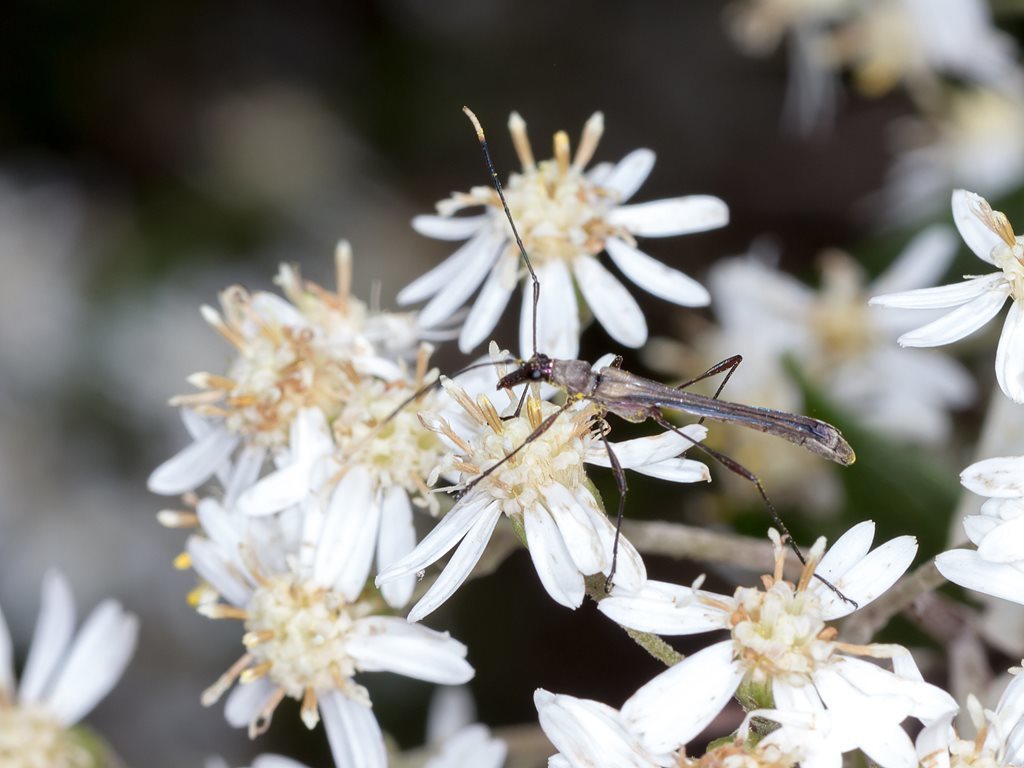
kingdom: Animalia
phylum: Arthropoda
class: Insecta
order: Coleoptera
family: Cerambycidae
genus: Enchoptera
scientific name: Enchoptera apicalis
